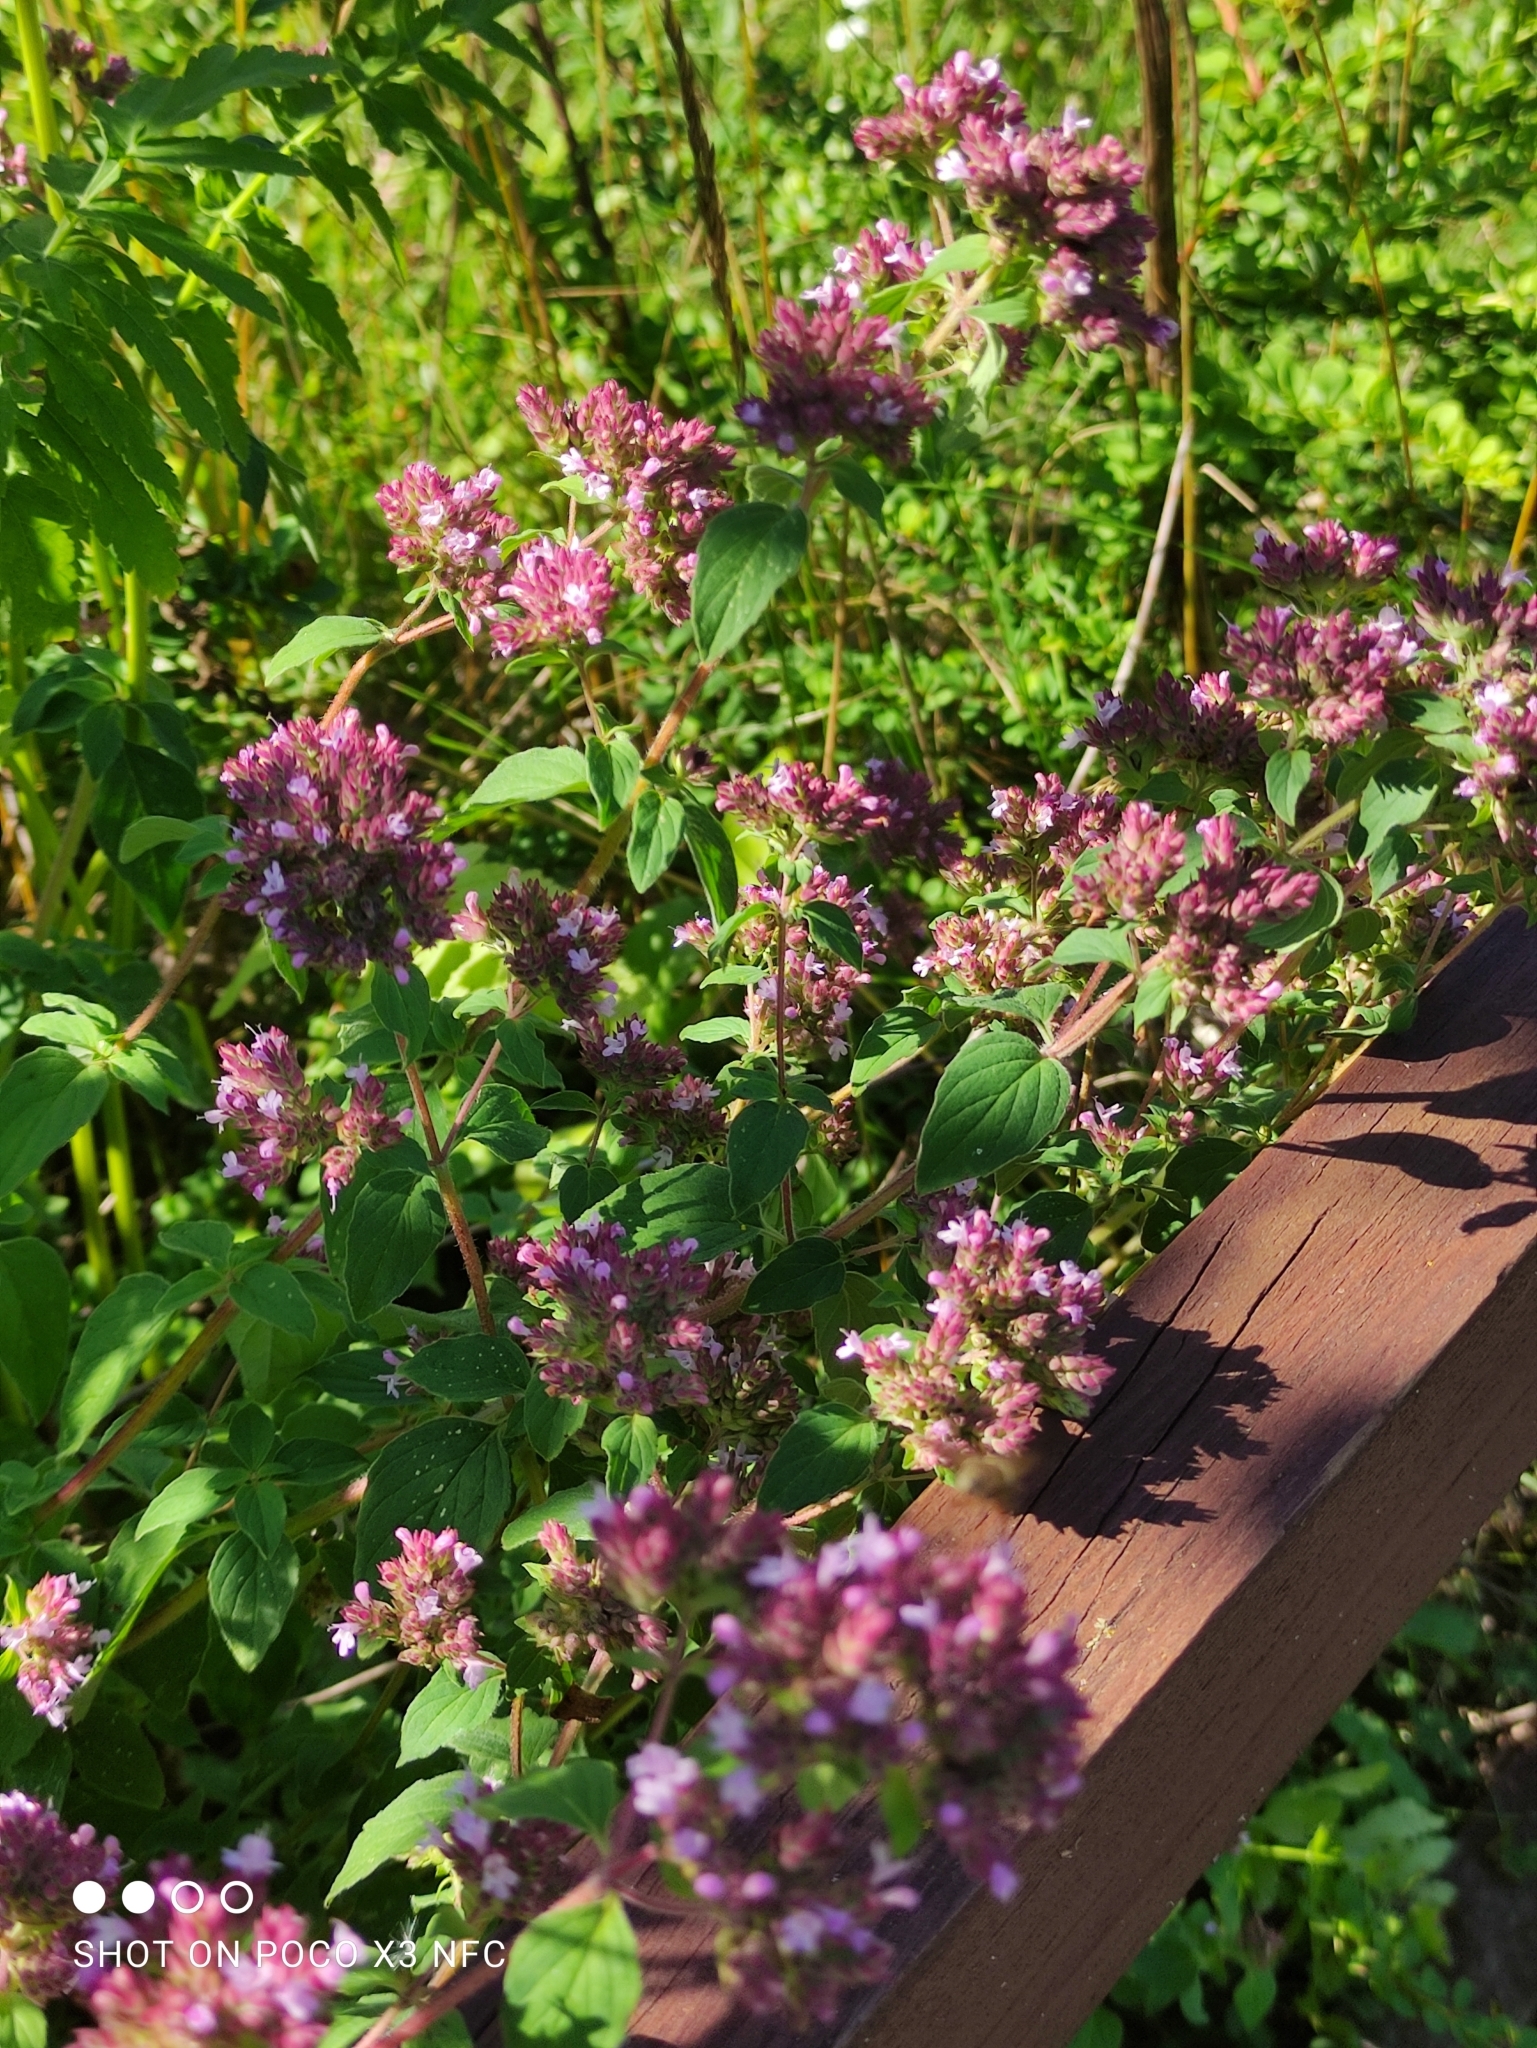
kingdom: Plantae
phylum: Tracheophyta
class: Magnoliopsida
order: Lamiales
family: Lamiaceae
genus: Origanum
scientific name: Origanum vulgare
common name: Wild marjoram
